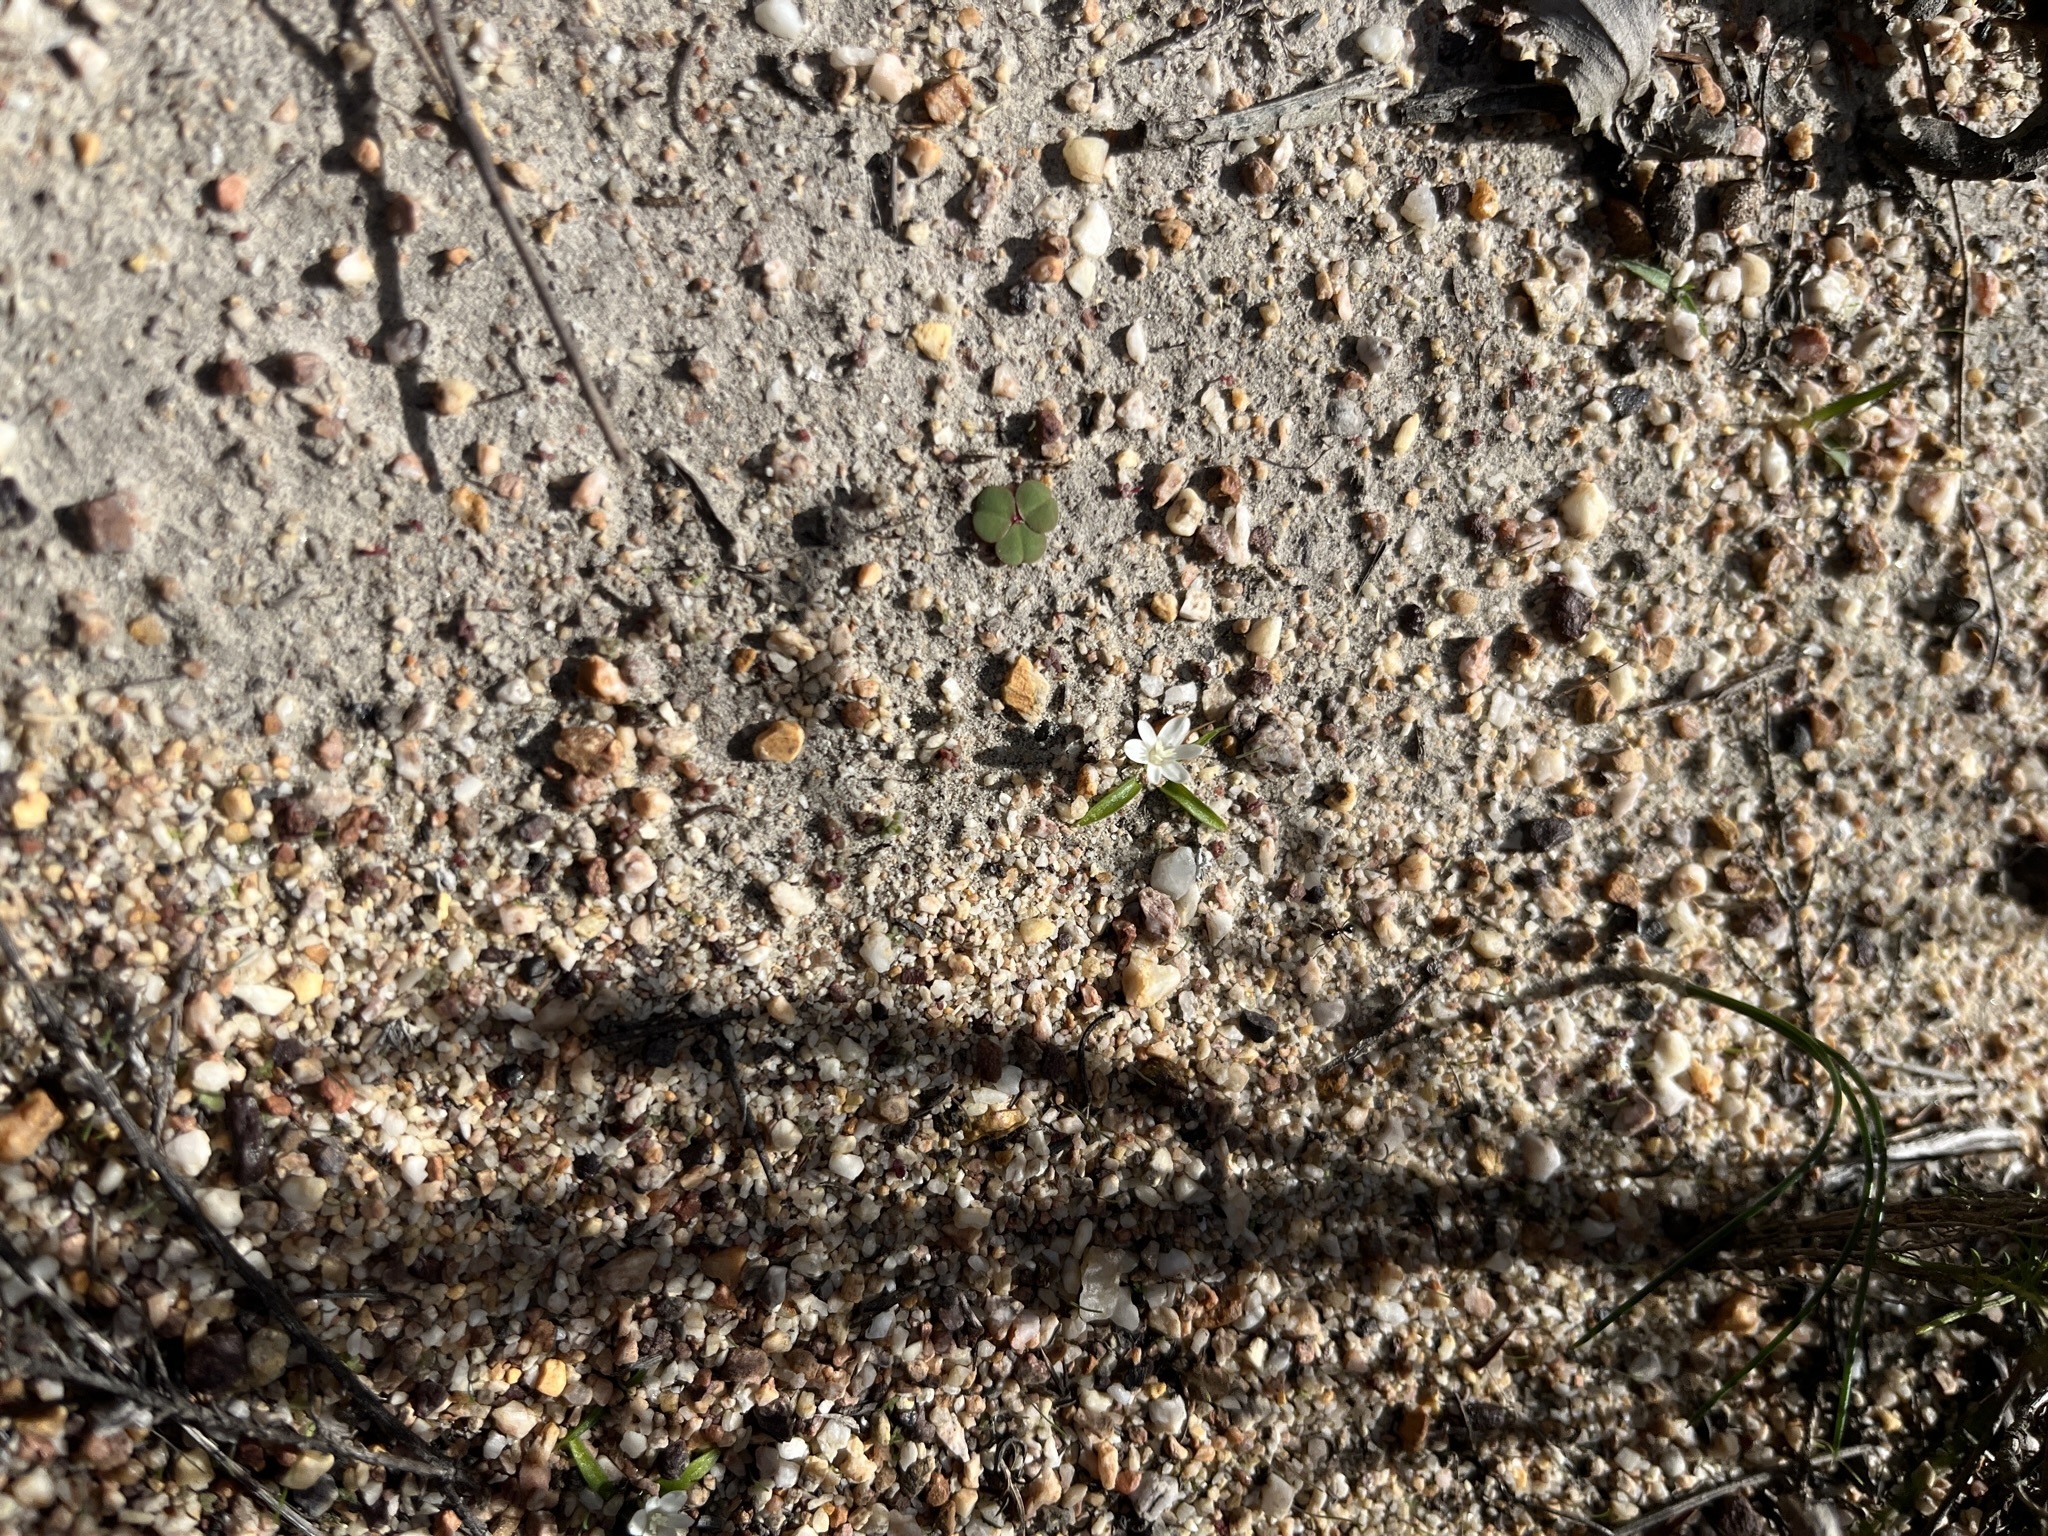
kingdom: Plantae
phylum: Tracheophyta
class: Liliopsida
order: Asparagales
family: Hypoxidaceae
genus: Pauridia
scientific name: Pauridia minuta
